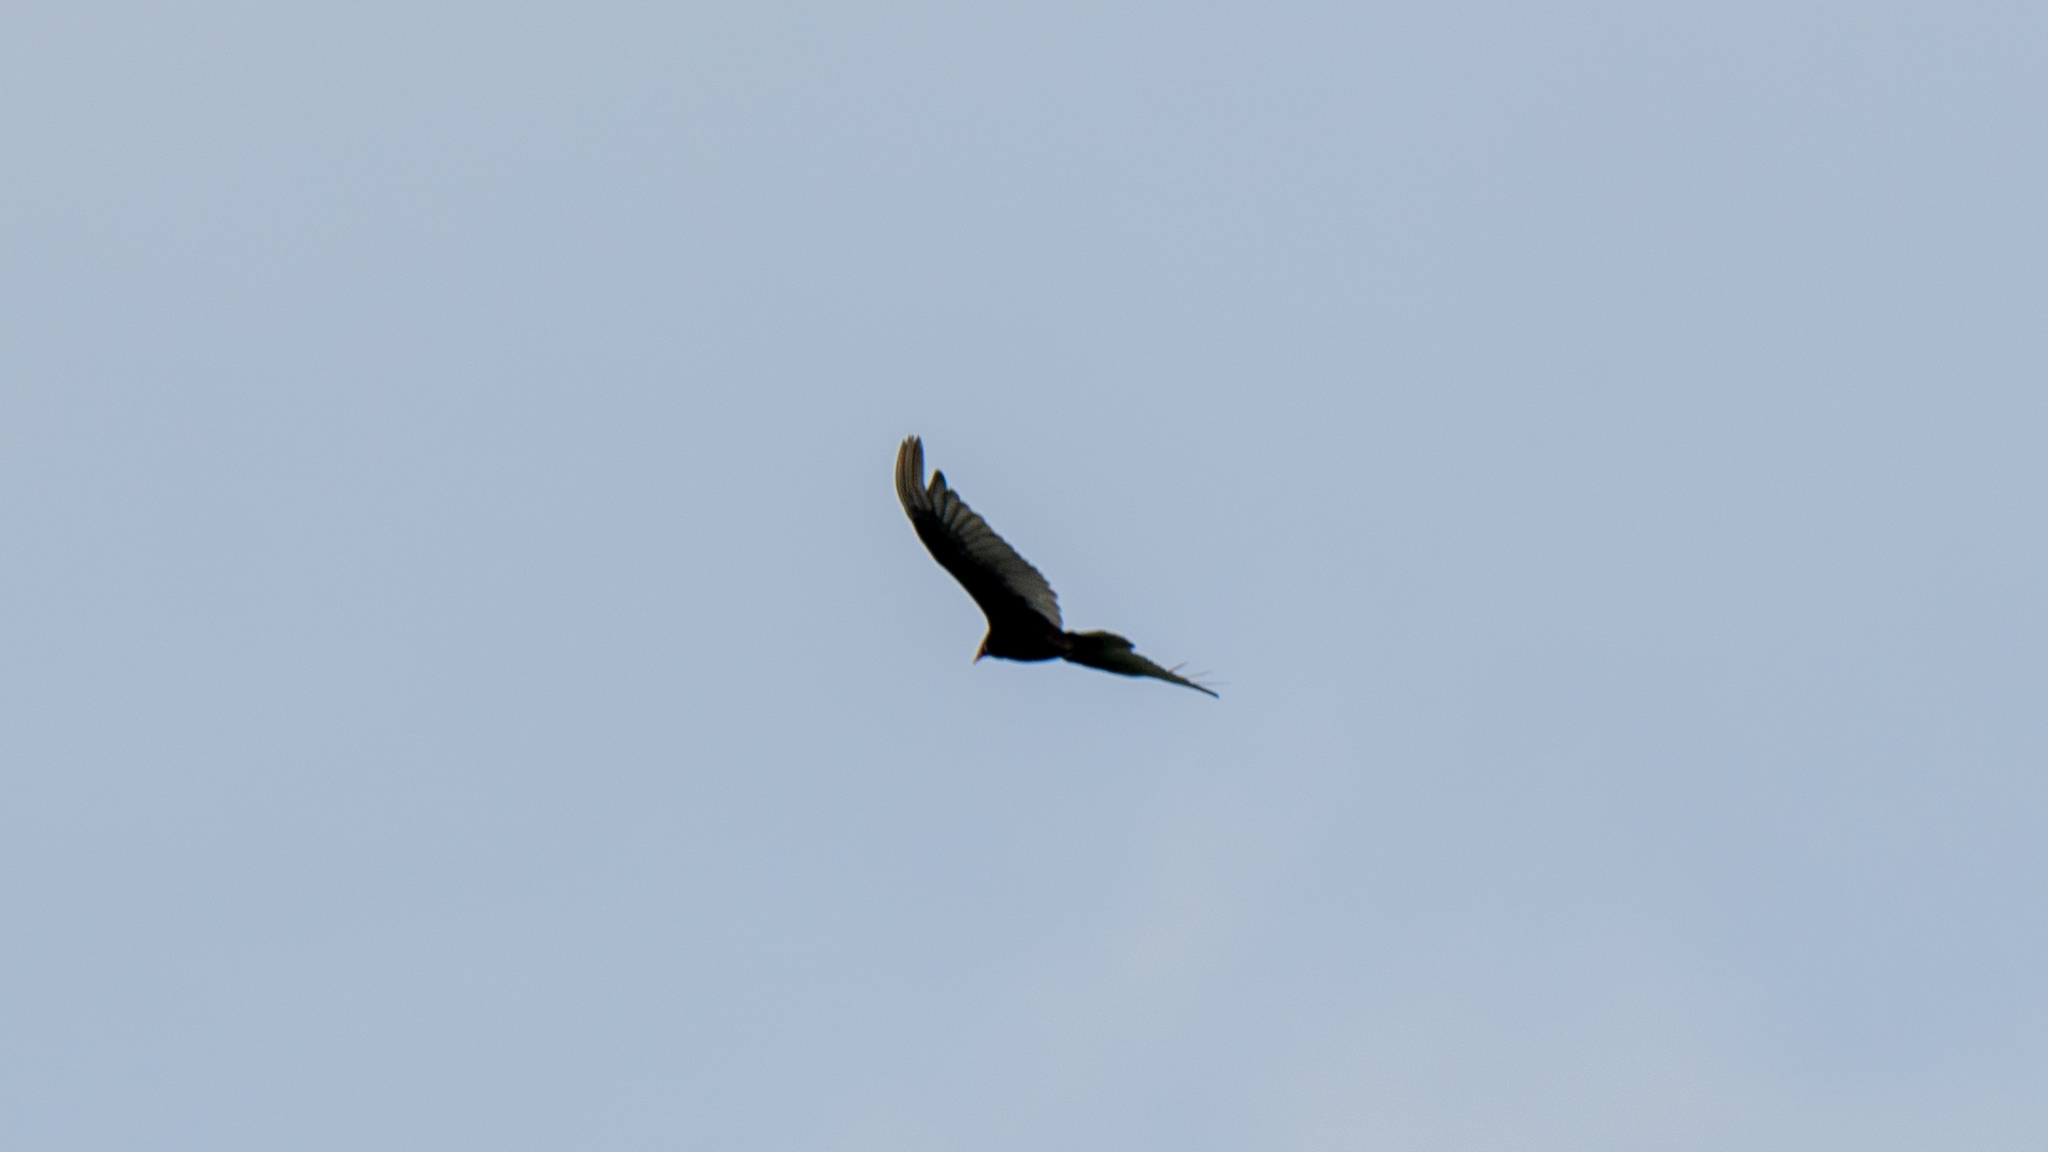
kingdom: Animalia
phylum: Chordata
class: Aves
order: Accipitriformes
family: Cathartidae
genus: Cathartes
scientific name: Cathartes aura
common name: Turkey vulture
